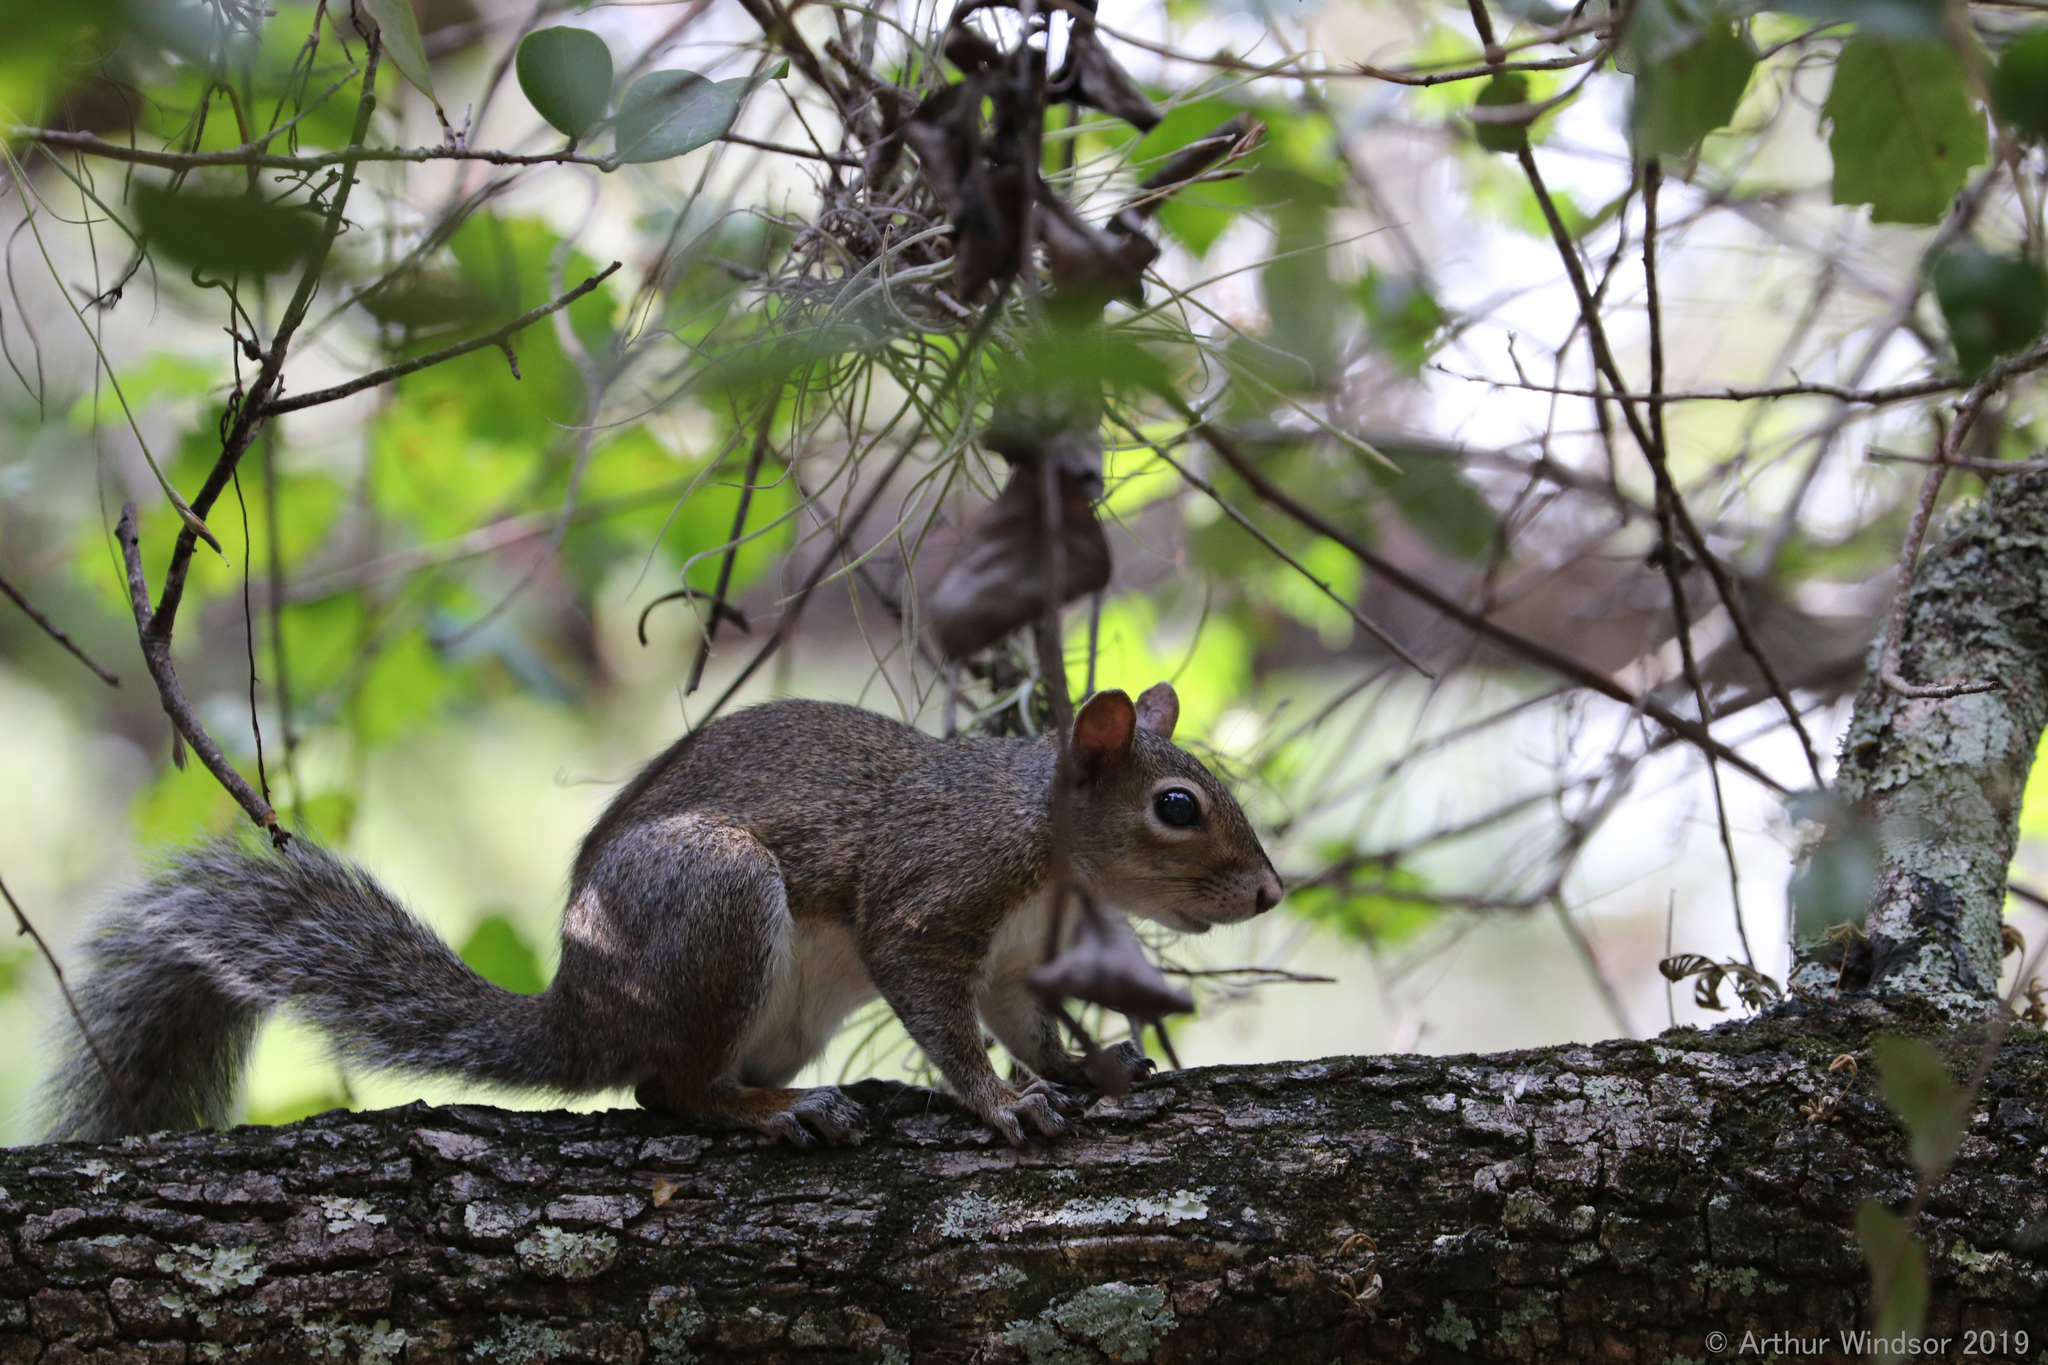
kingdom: Animalia
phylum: Chordata
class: Mammalia
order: Rodentia
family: Sciuridae
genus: Sciurus
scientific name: Sciurus carolinensis
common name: Eastern gray squirrel
